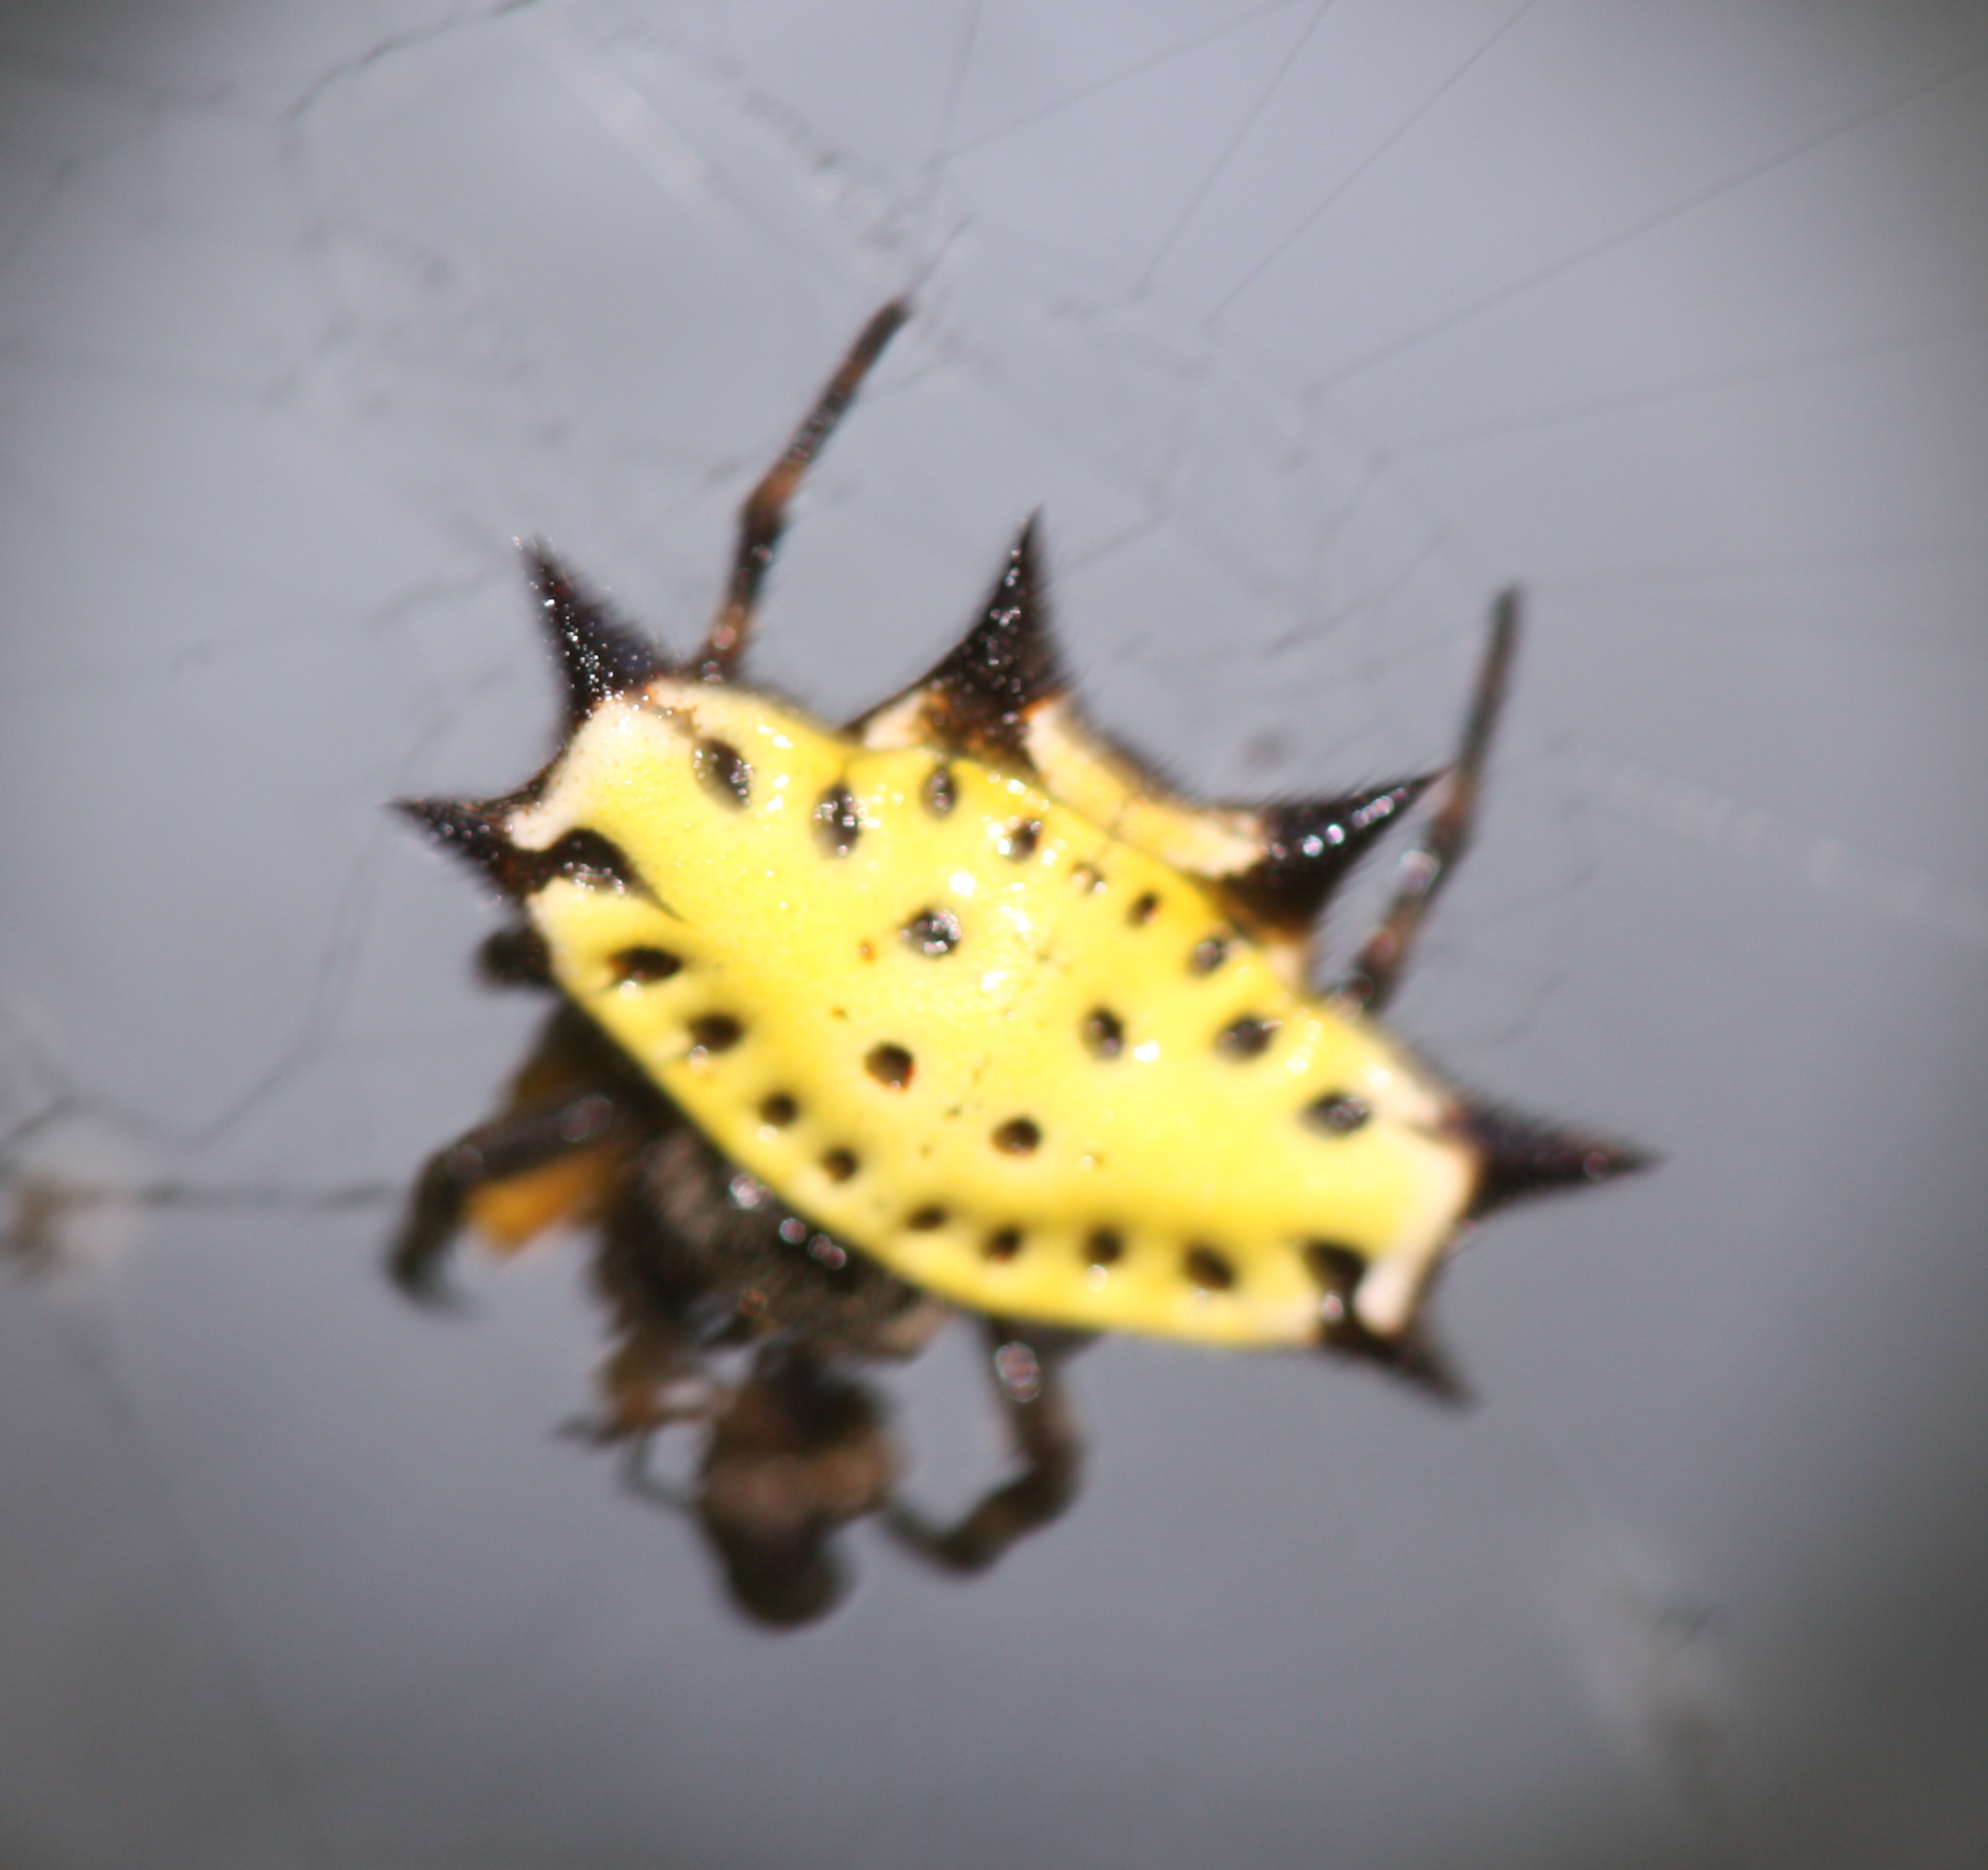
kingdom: Animalia
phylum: Arthropoda
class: Arachnida
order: Araneae
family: Araneidae
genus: Gasteracantha
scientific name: Gasteracantha cancriformis
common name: Orb weavers
